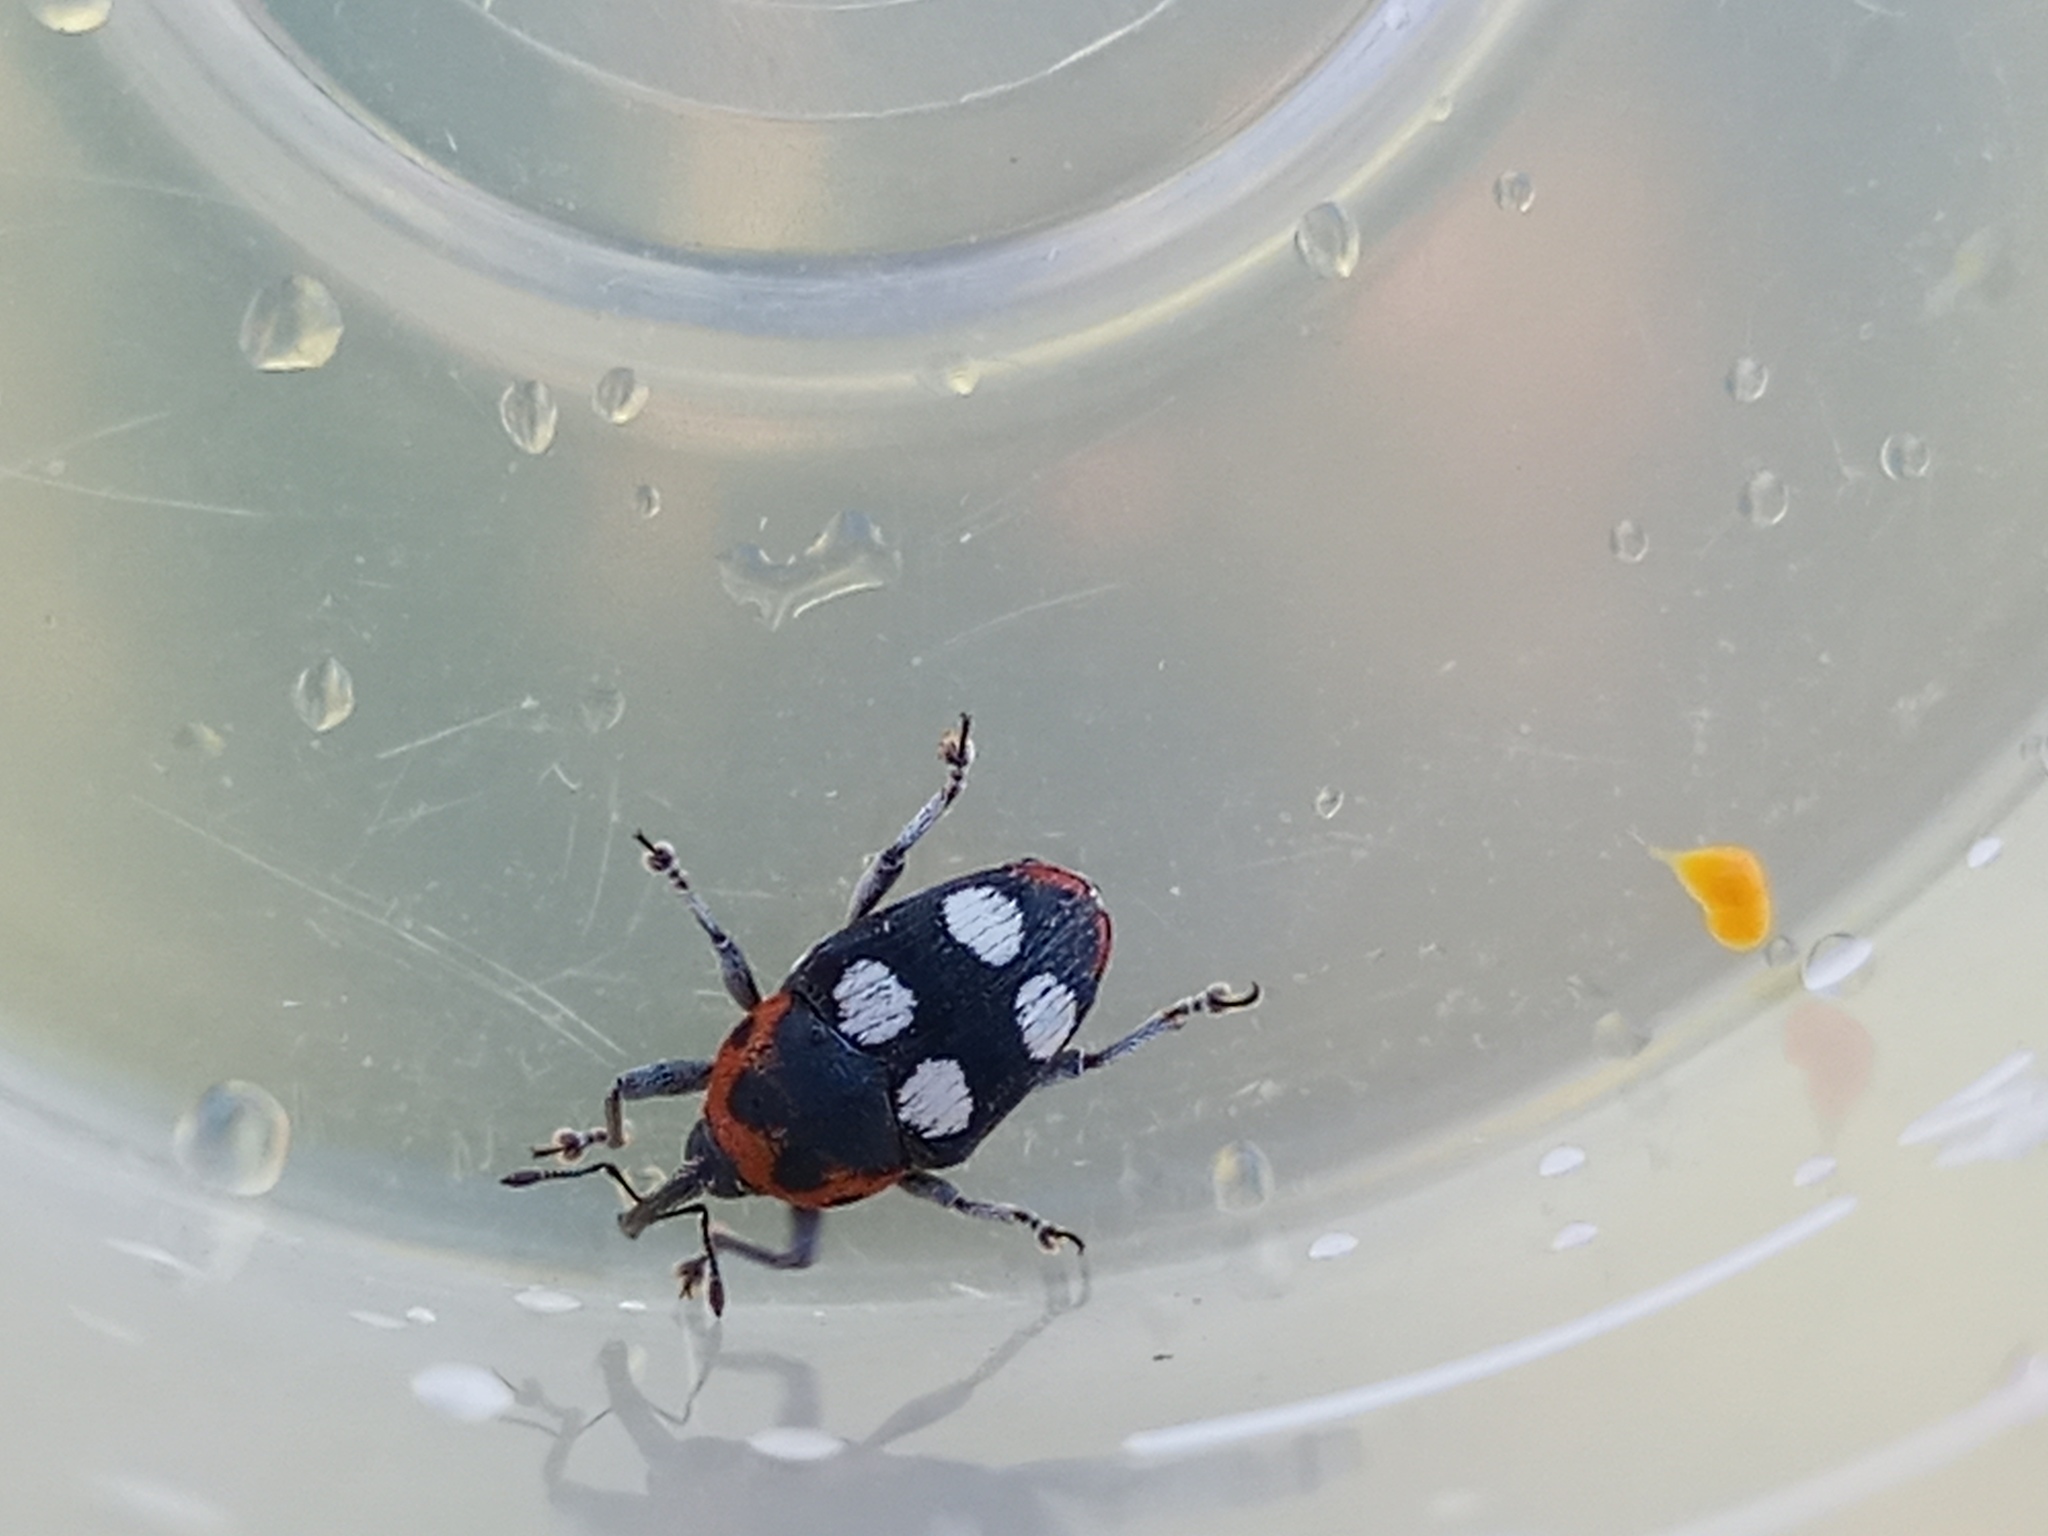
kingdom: Animalia
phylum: Arthropoda
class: Insecta
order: Coleoptera
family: Curculionidae
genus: Megabaris
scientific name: Megabaris quadriguttatus
